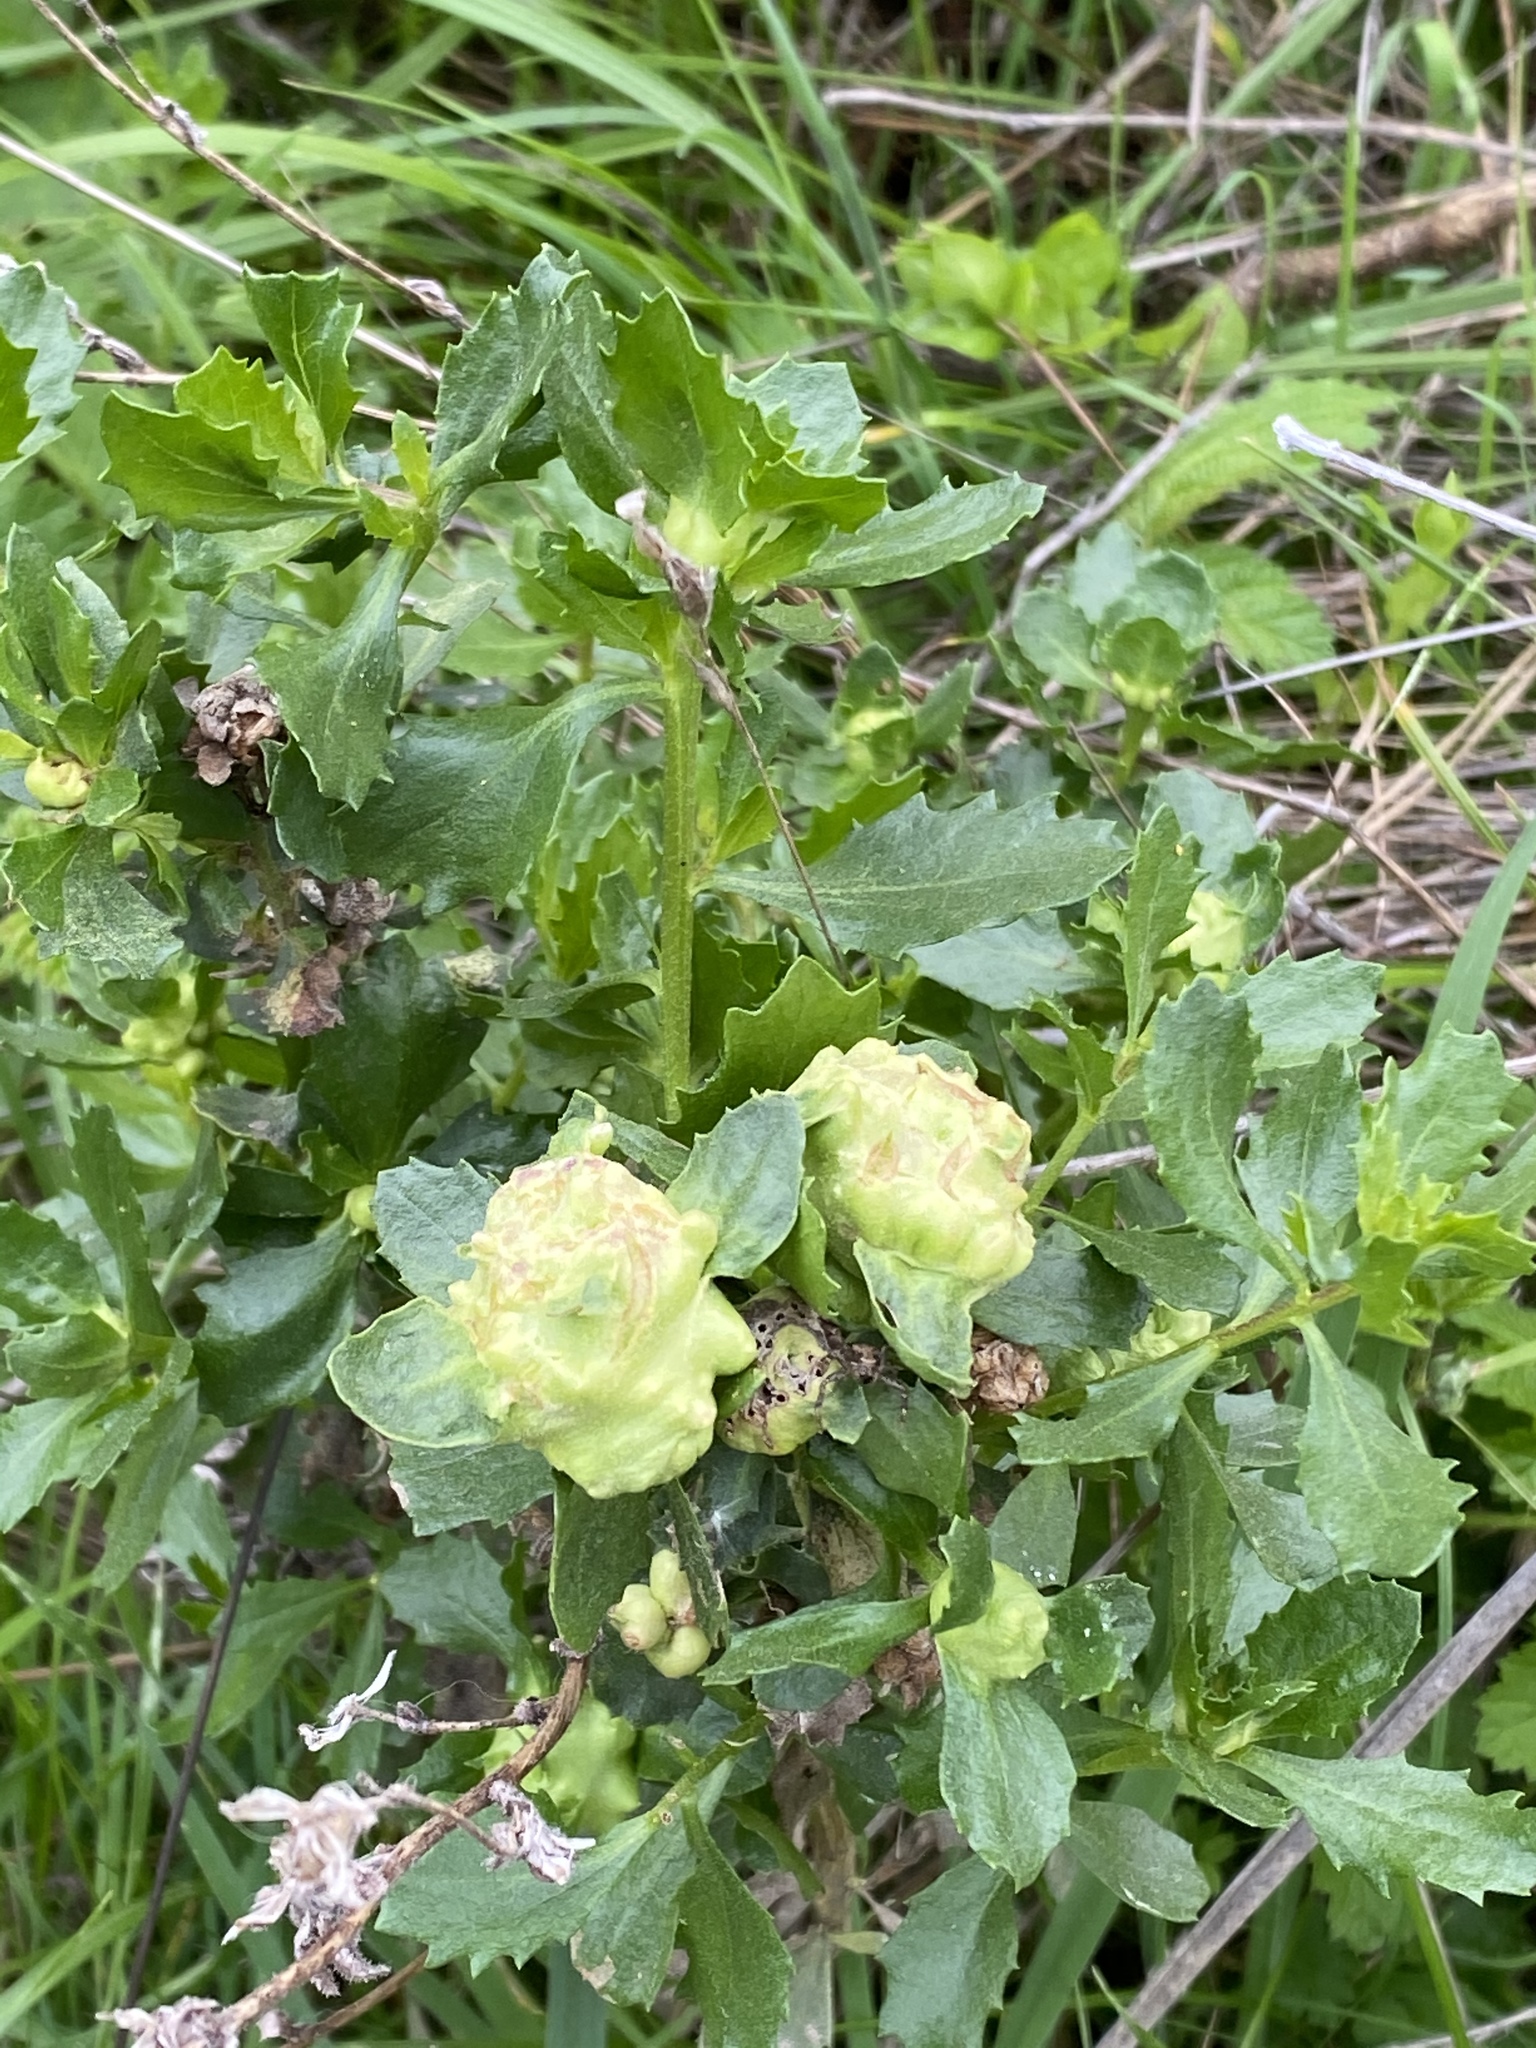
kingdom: Plantae
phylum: Tracheophyta
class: Magnoliopsida
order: Asterales
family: Asteraceae
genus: Baccharis
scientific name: Baccharis pilularis
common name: Coyotebrush
